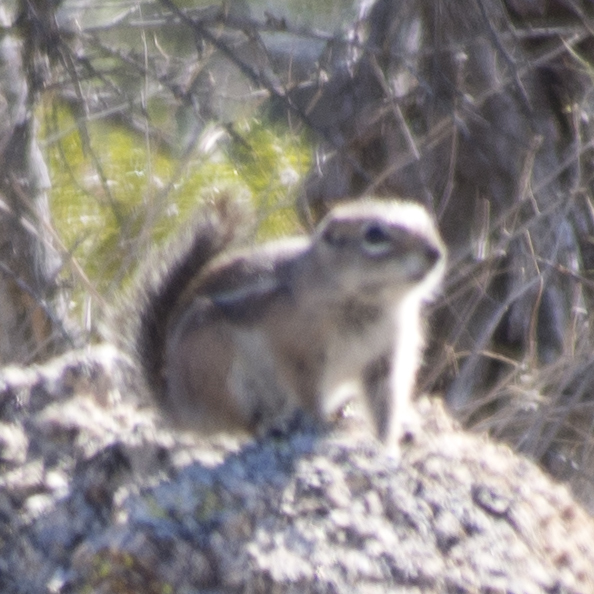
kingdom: Animalia
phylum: Chordata
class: Mammalia
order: Rodentia
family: Sciuridae
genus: Ammospermophilus
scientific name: Ammospermophilus harrisii
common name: Harris's antelope squirrel
